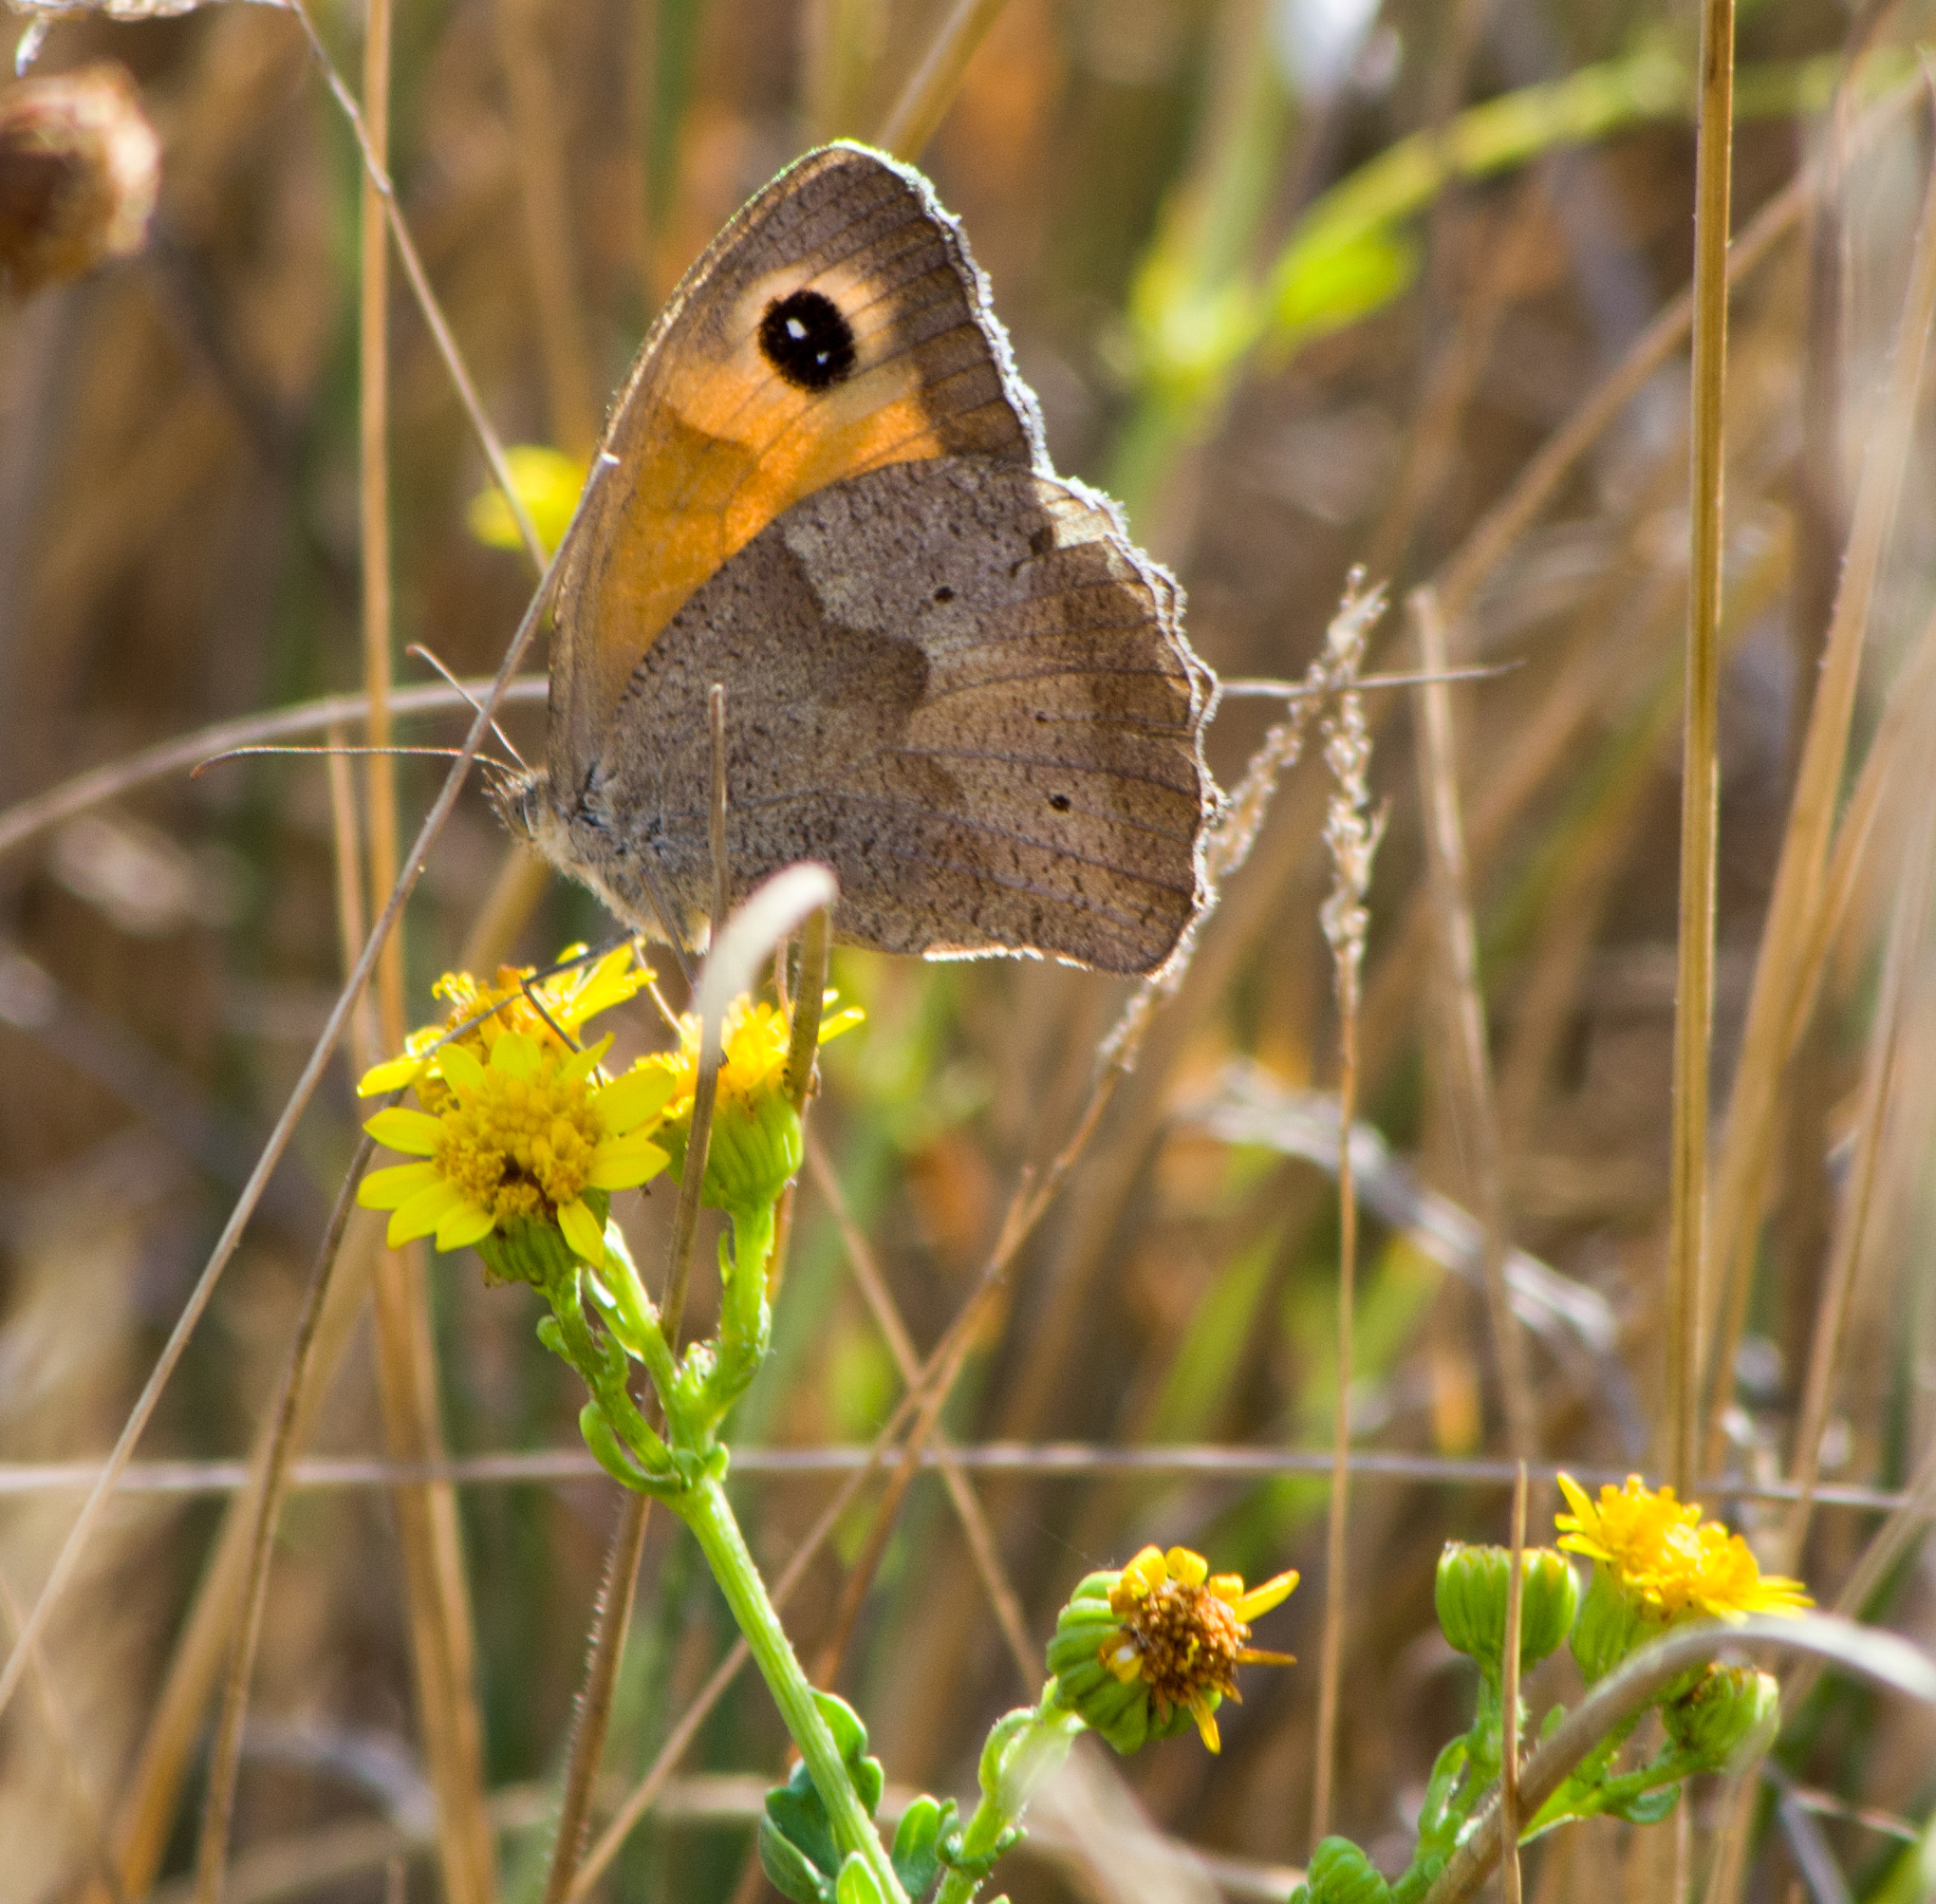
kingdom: Animalia
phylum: Arthropoda
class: Insecta
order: Lepidoptera
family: Nymphalidae
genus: Maniola
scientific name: Maniola jurtina
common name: Meadow brown
